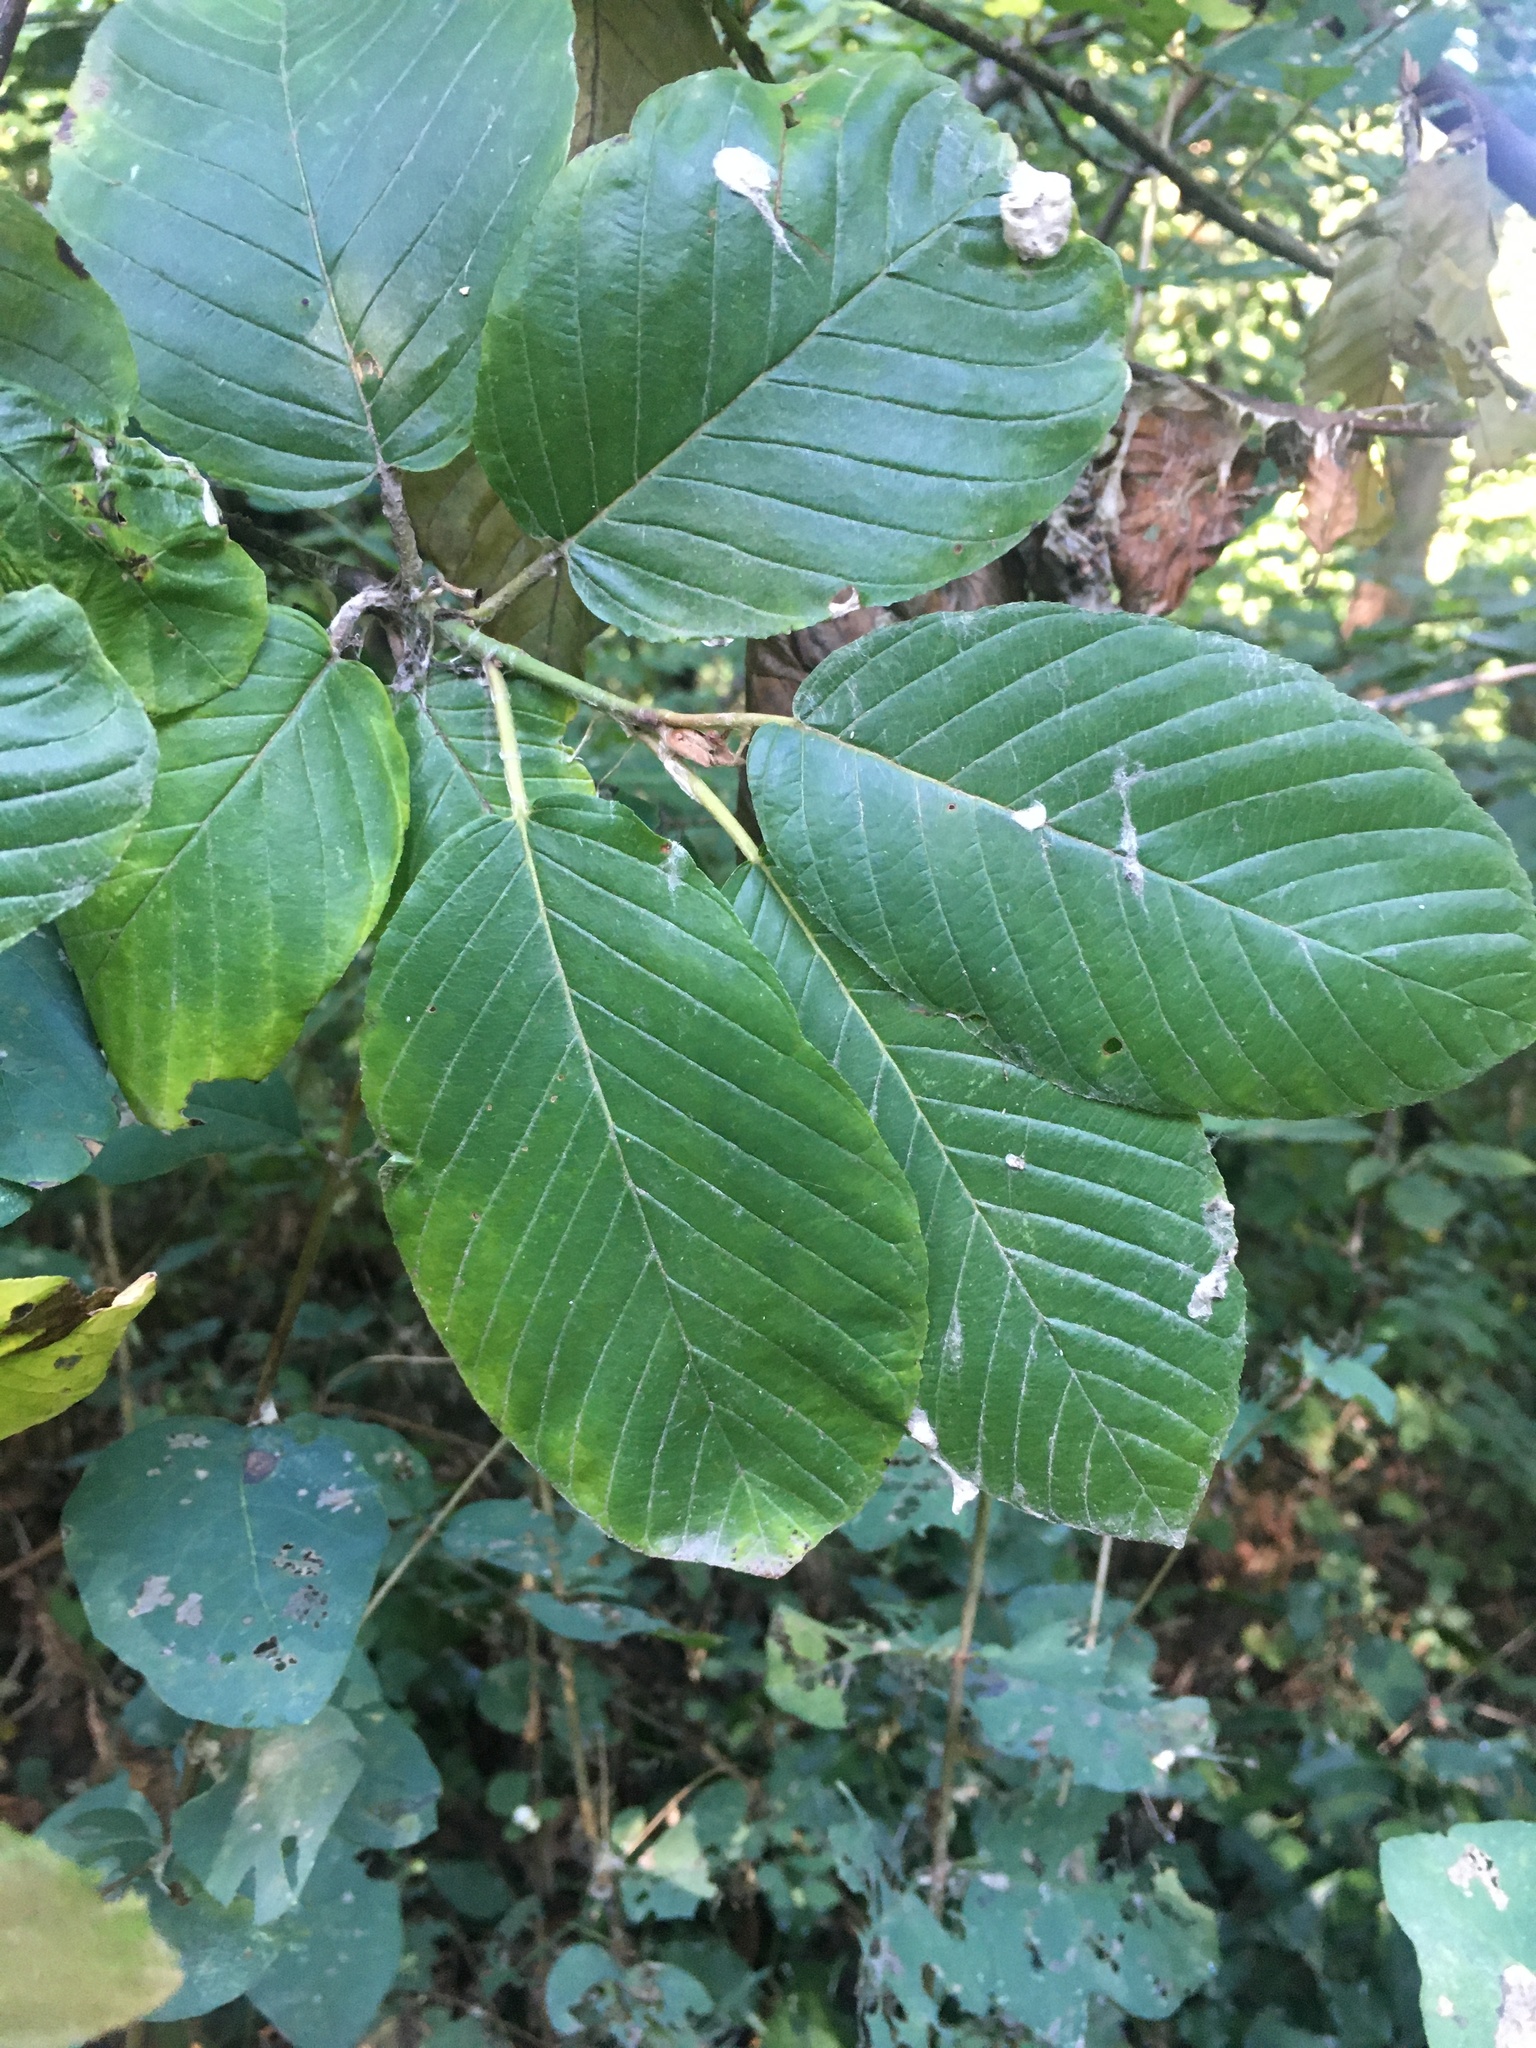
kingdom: Plantae
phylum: Tracheophyta
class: Magnoliopsida
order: Rosales
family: Rhamnaceae
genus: Frangula
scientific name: Frangula purshiana
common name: Cascara buckthorn
